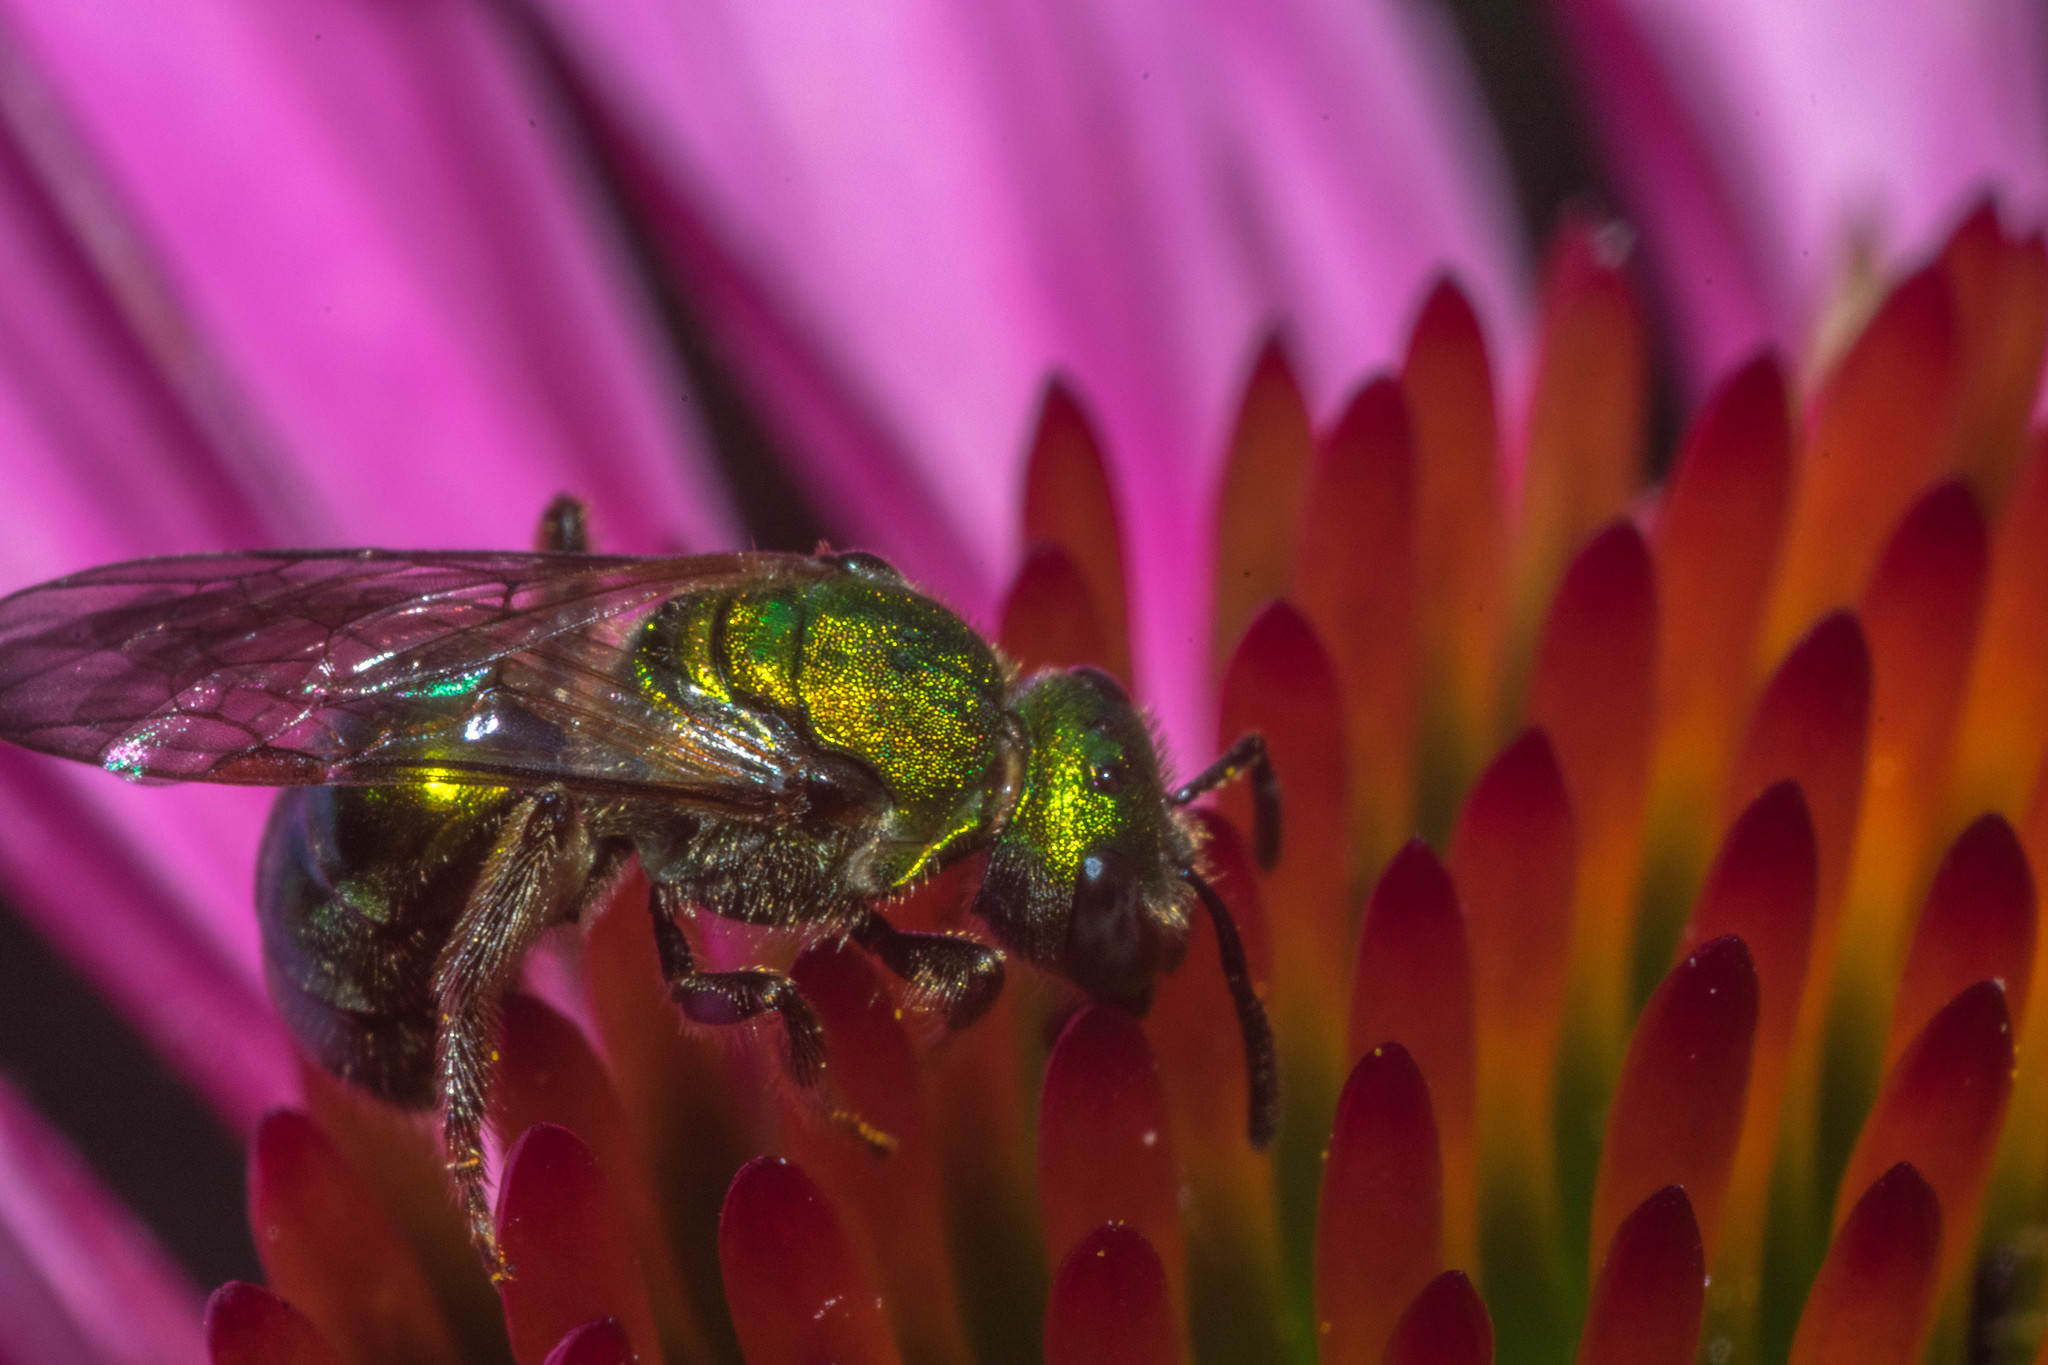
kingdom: Animalia
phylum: Arthropoda
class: Insecta
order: Hymenoptera
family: Halictidae
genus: Augochlora
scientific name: Augochlora pura
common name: Pure green sweat bee
